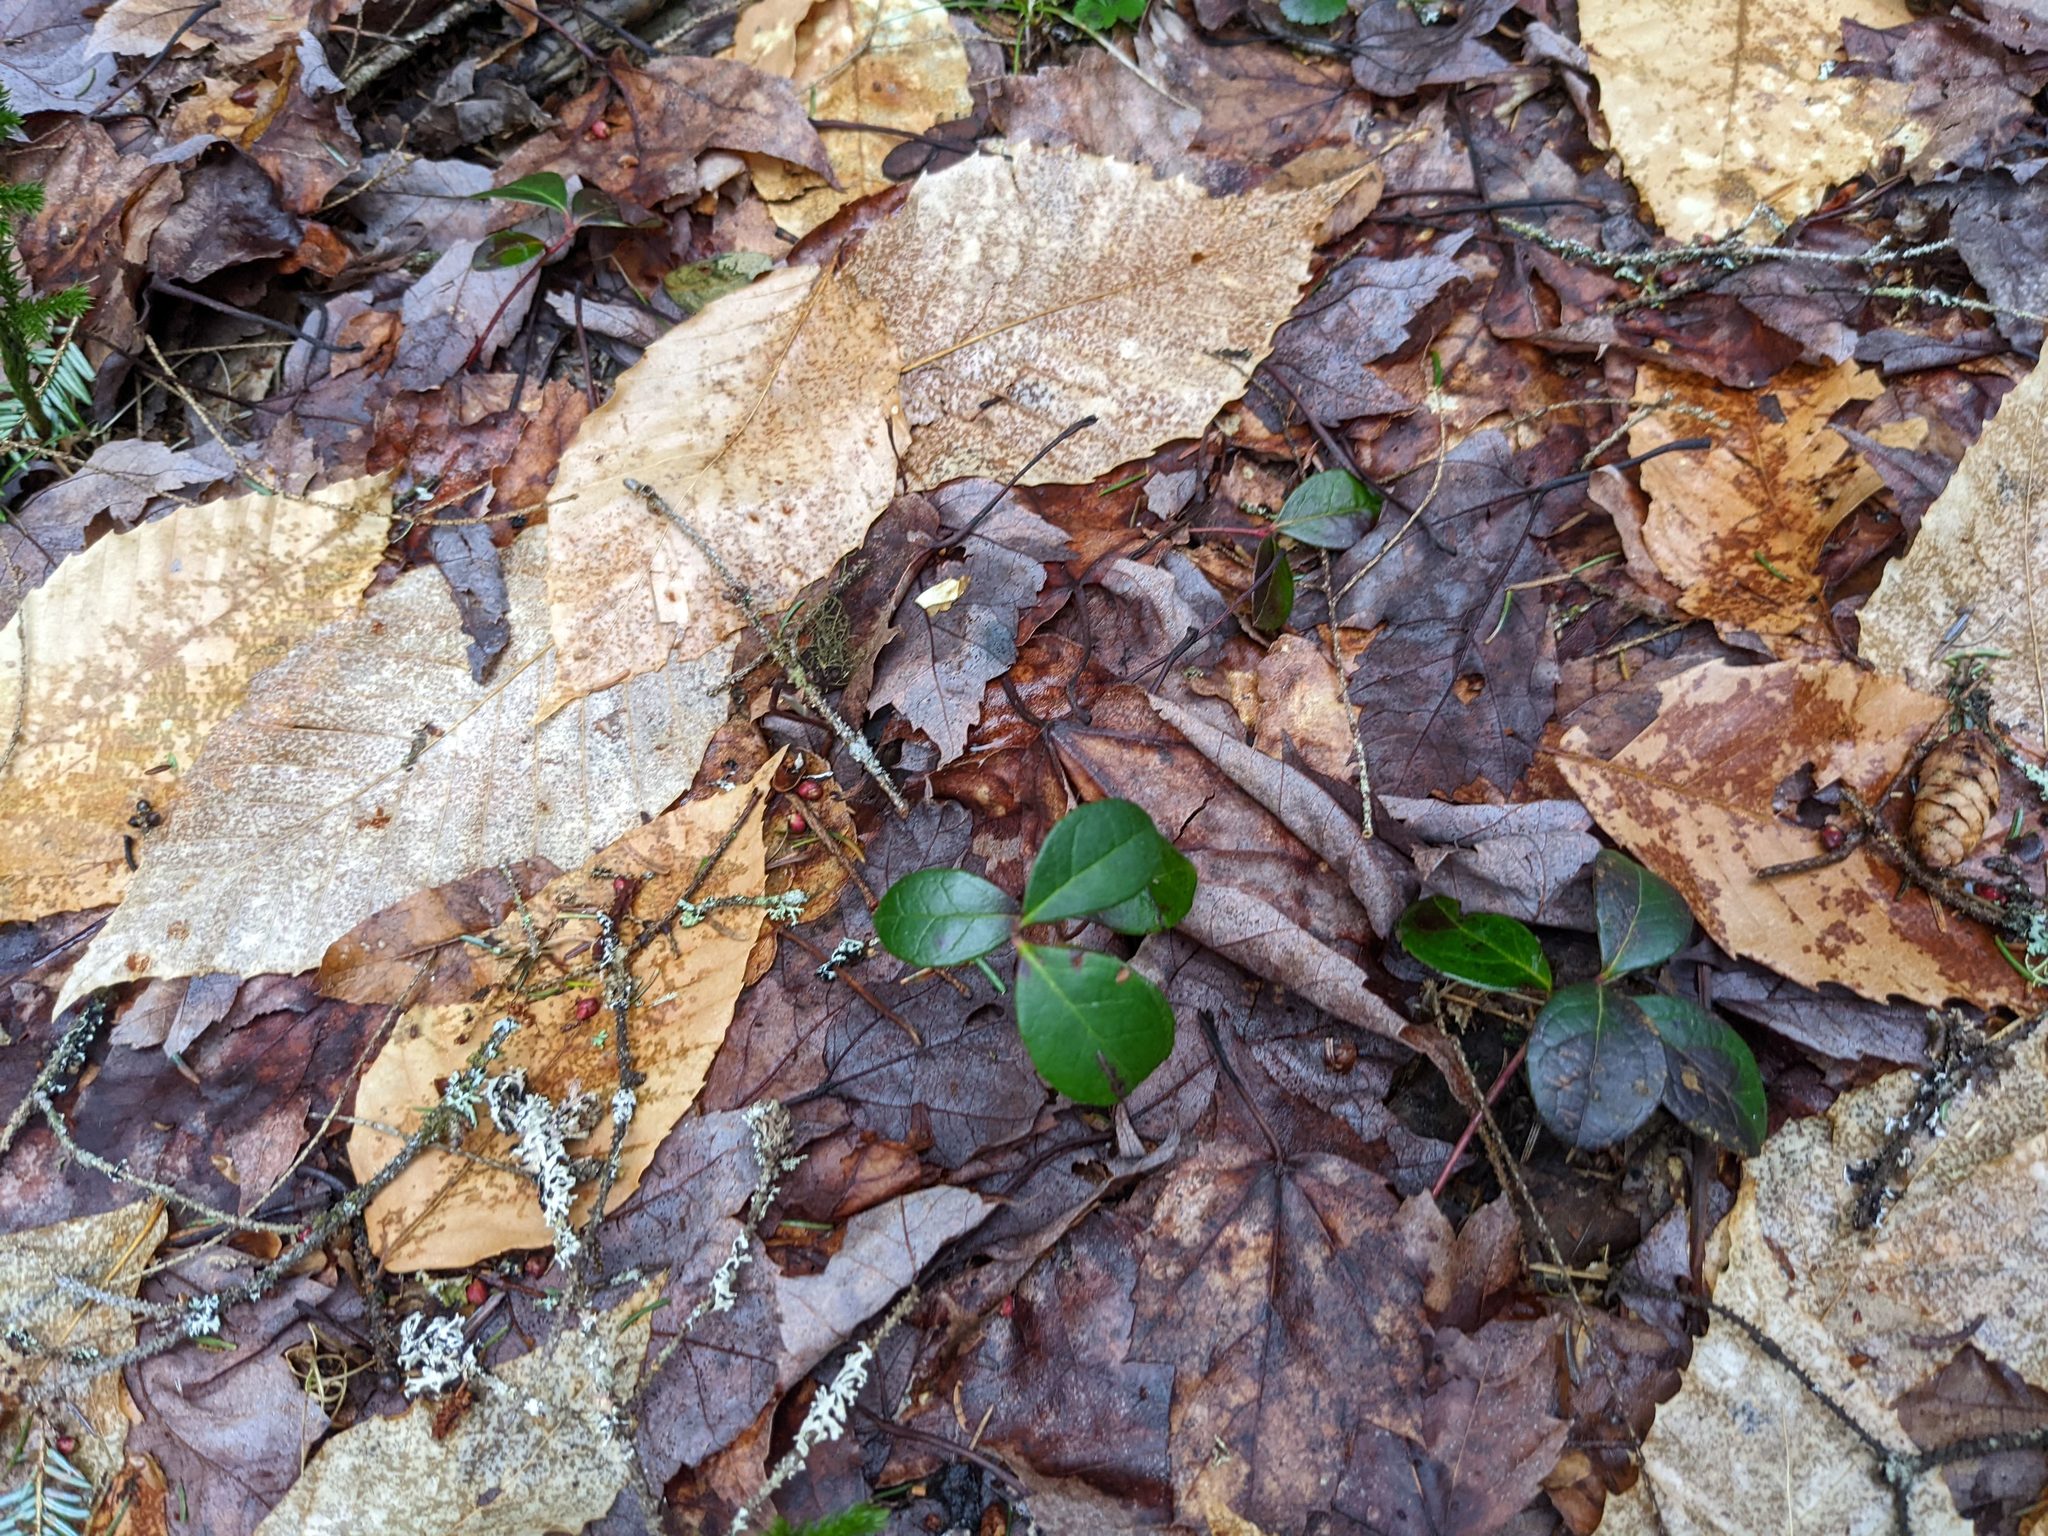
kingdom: Plantae
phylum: Tracheophyta
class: Magnoliopsida
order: Ericales
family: Ericaceae
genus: Gaultheria
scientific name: Gaultheria procumbens
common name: Checkerberry
